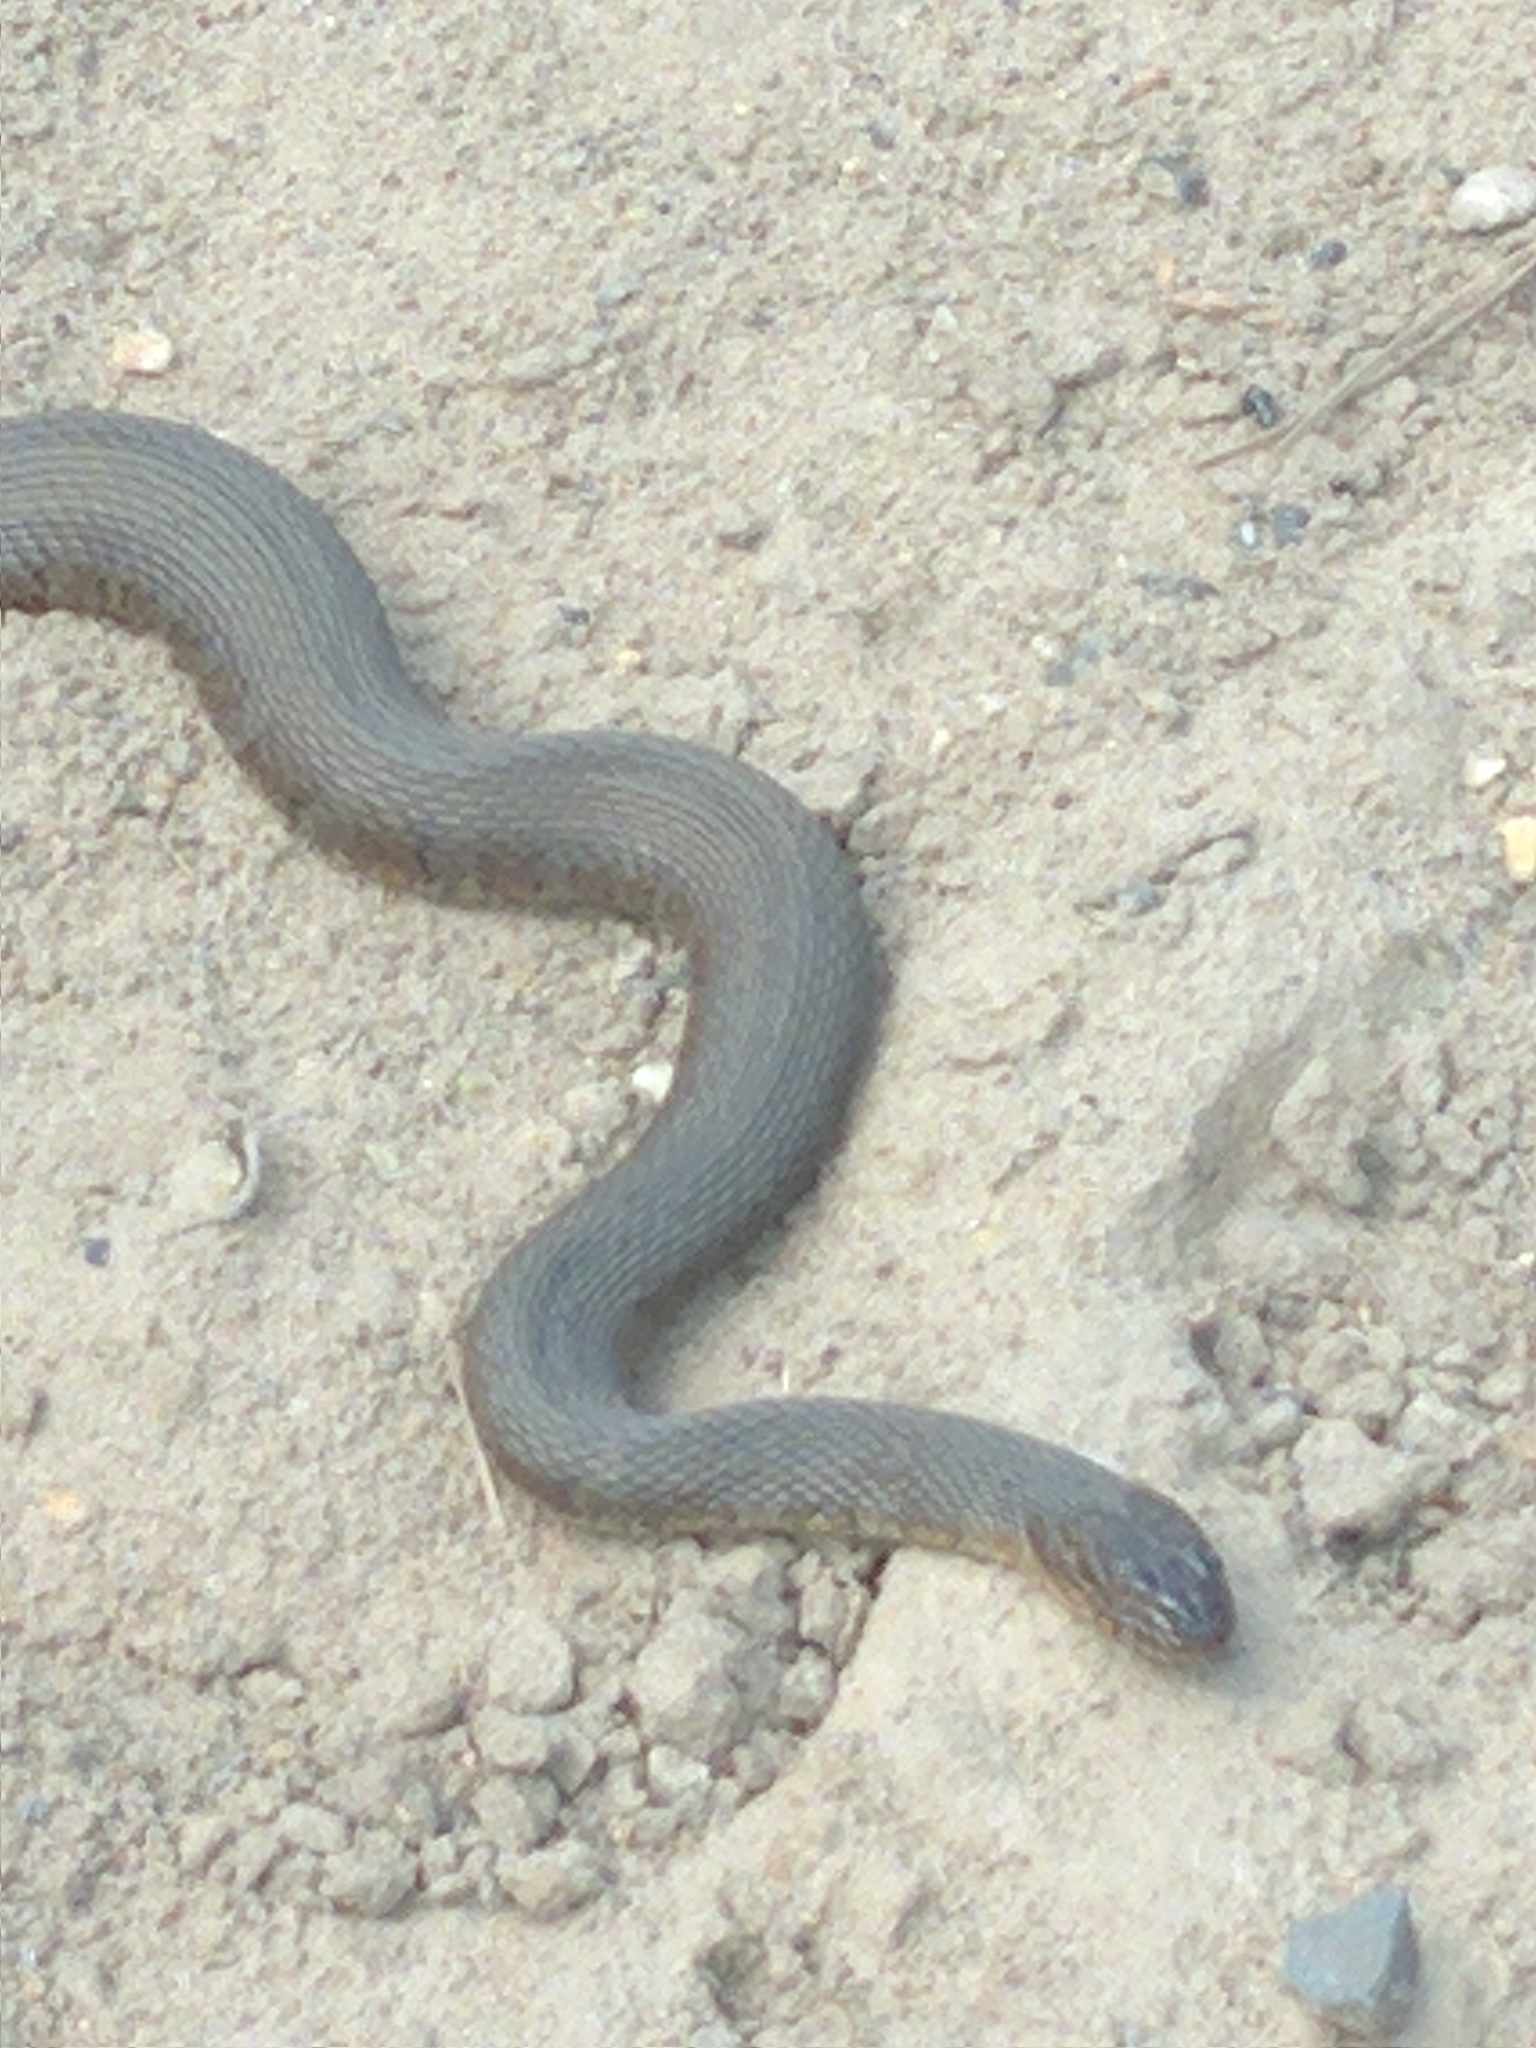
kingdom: Animalia
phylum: Chordata
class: Squamata
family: Colubridae
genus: Nerodia
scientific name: Nerodia sipedon
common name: Northern water snake
